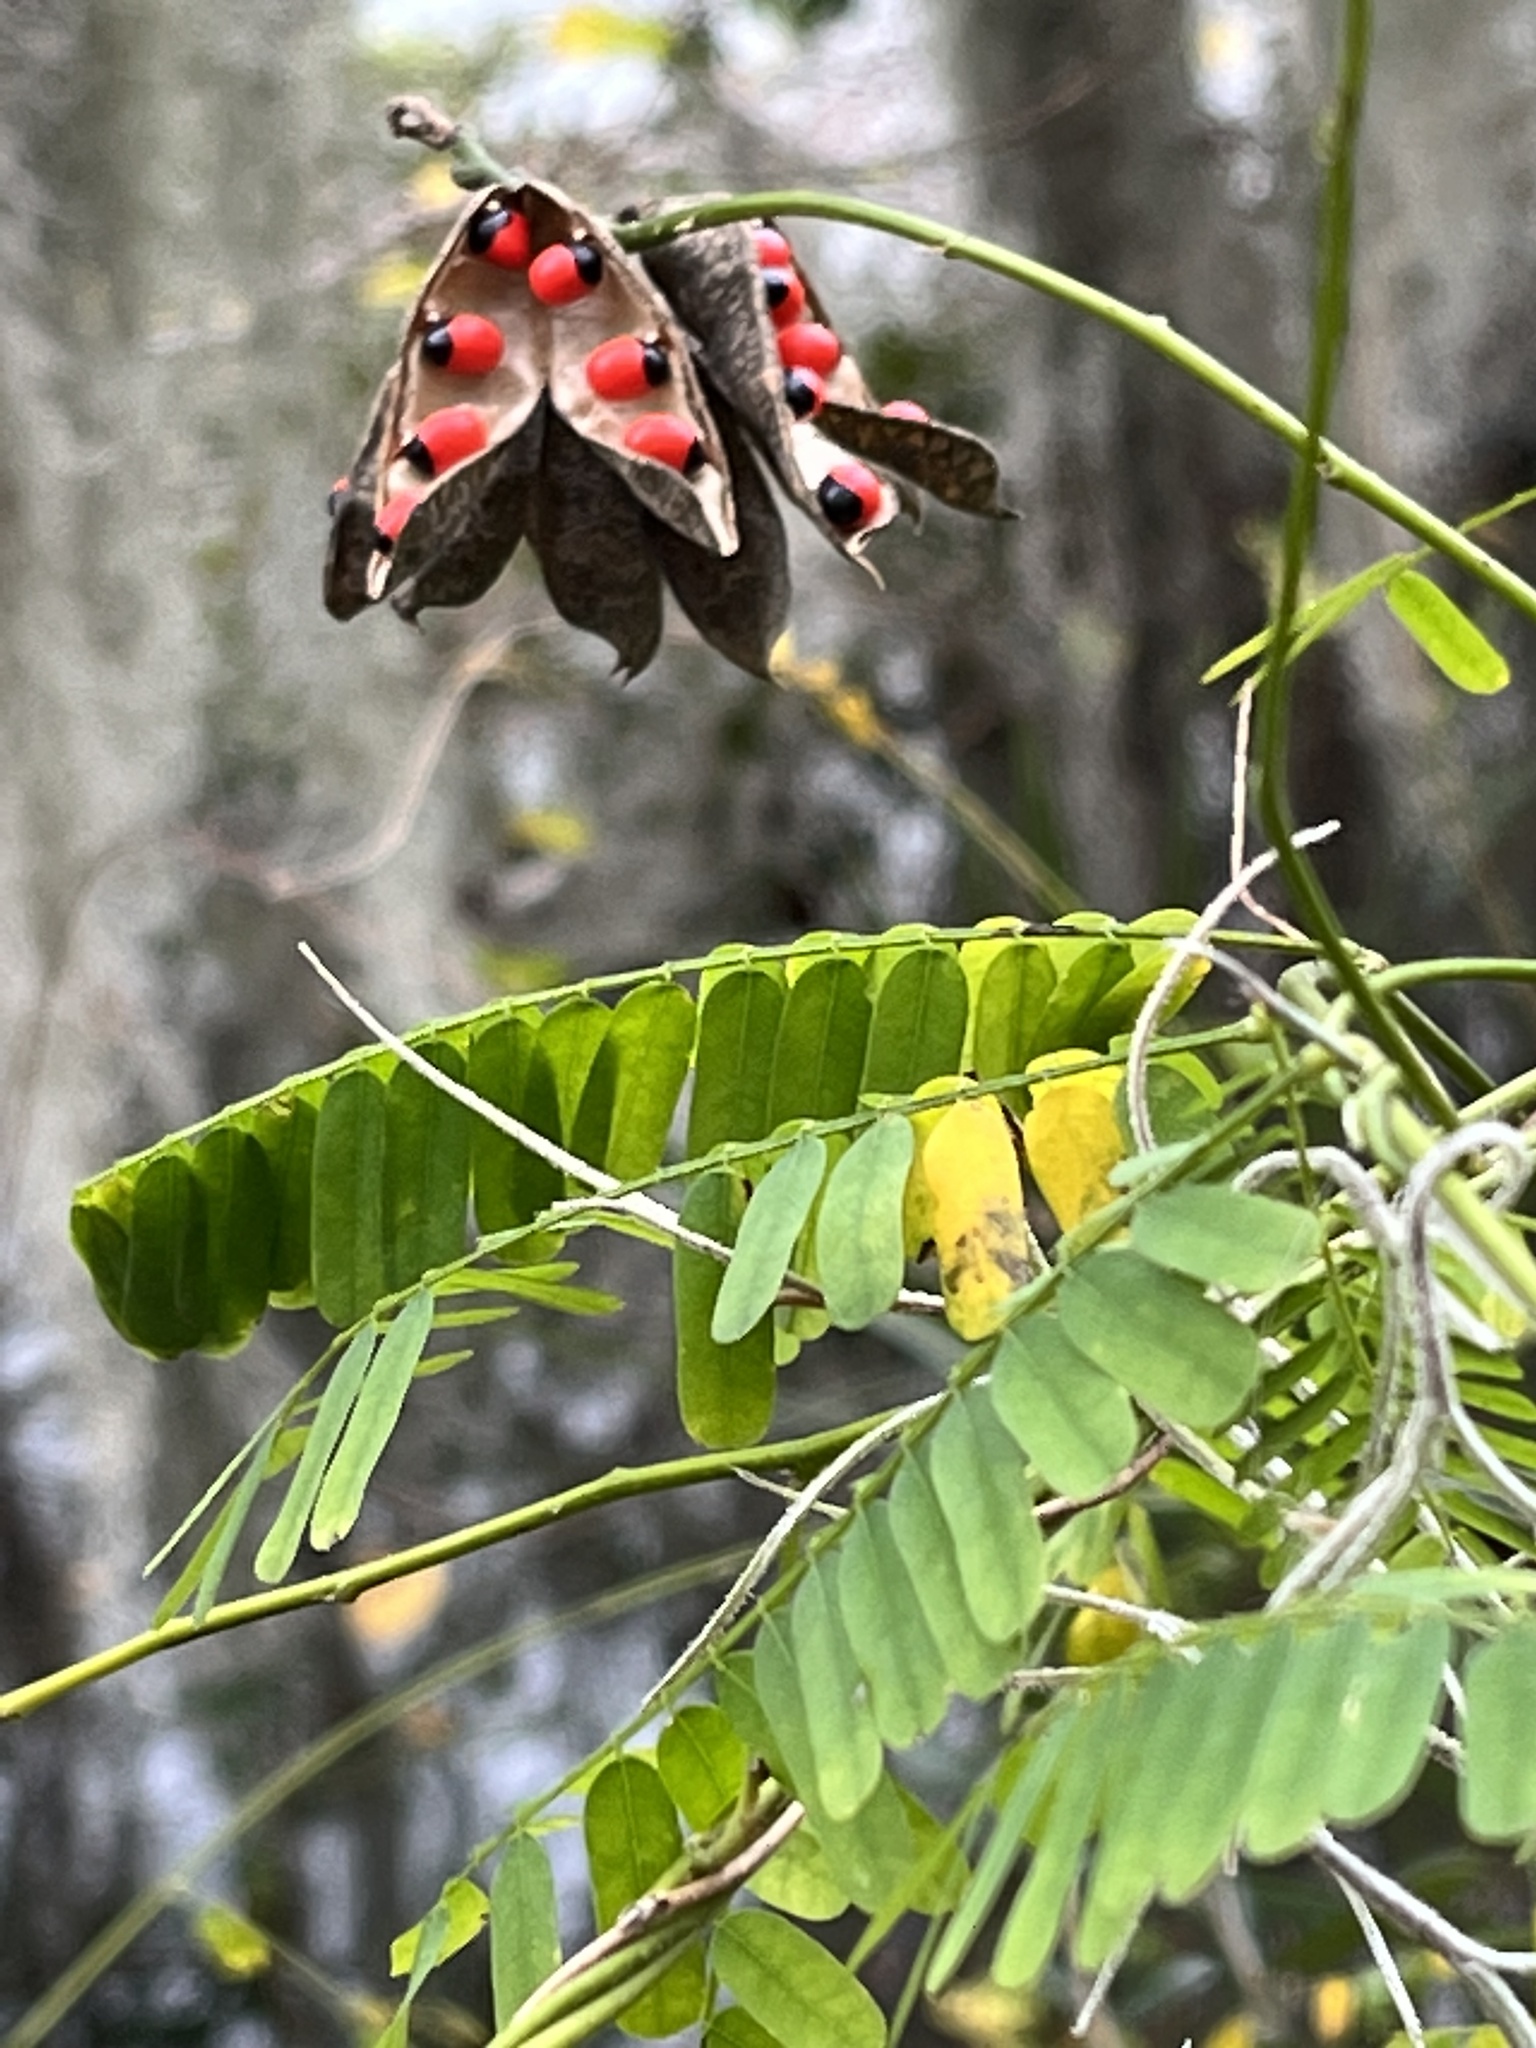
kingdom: Plantae
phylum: Tracheophyta
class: Magnoliopsida
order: Fabales
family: Fabaceae
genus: Abrus
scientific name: Abrus precatorius
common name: Rosarypea
